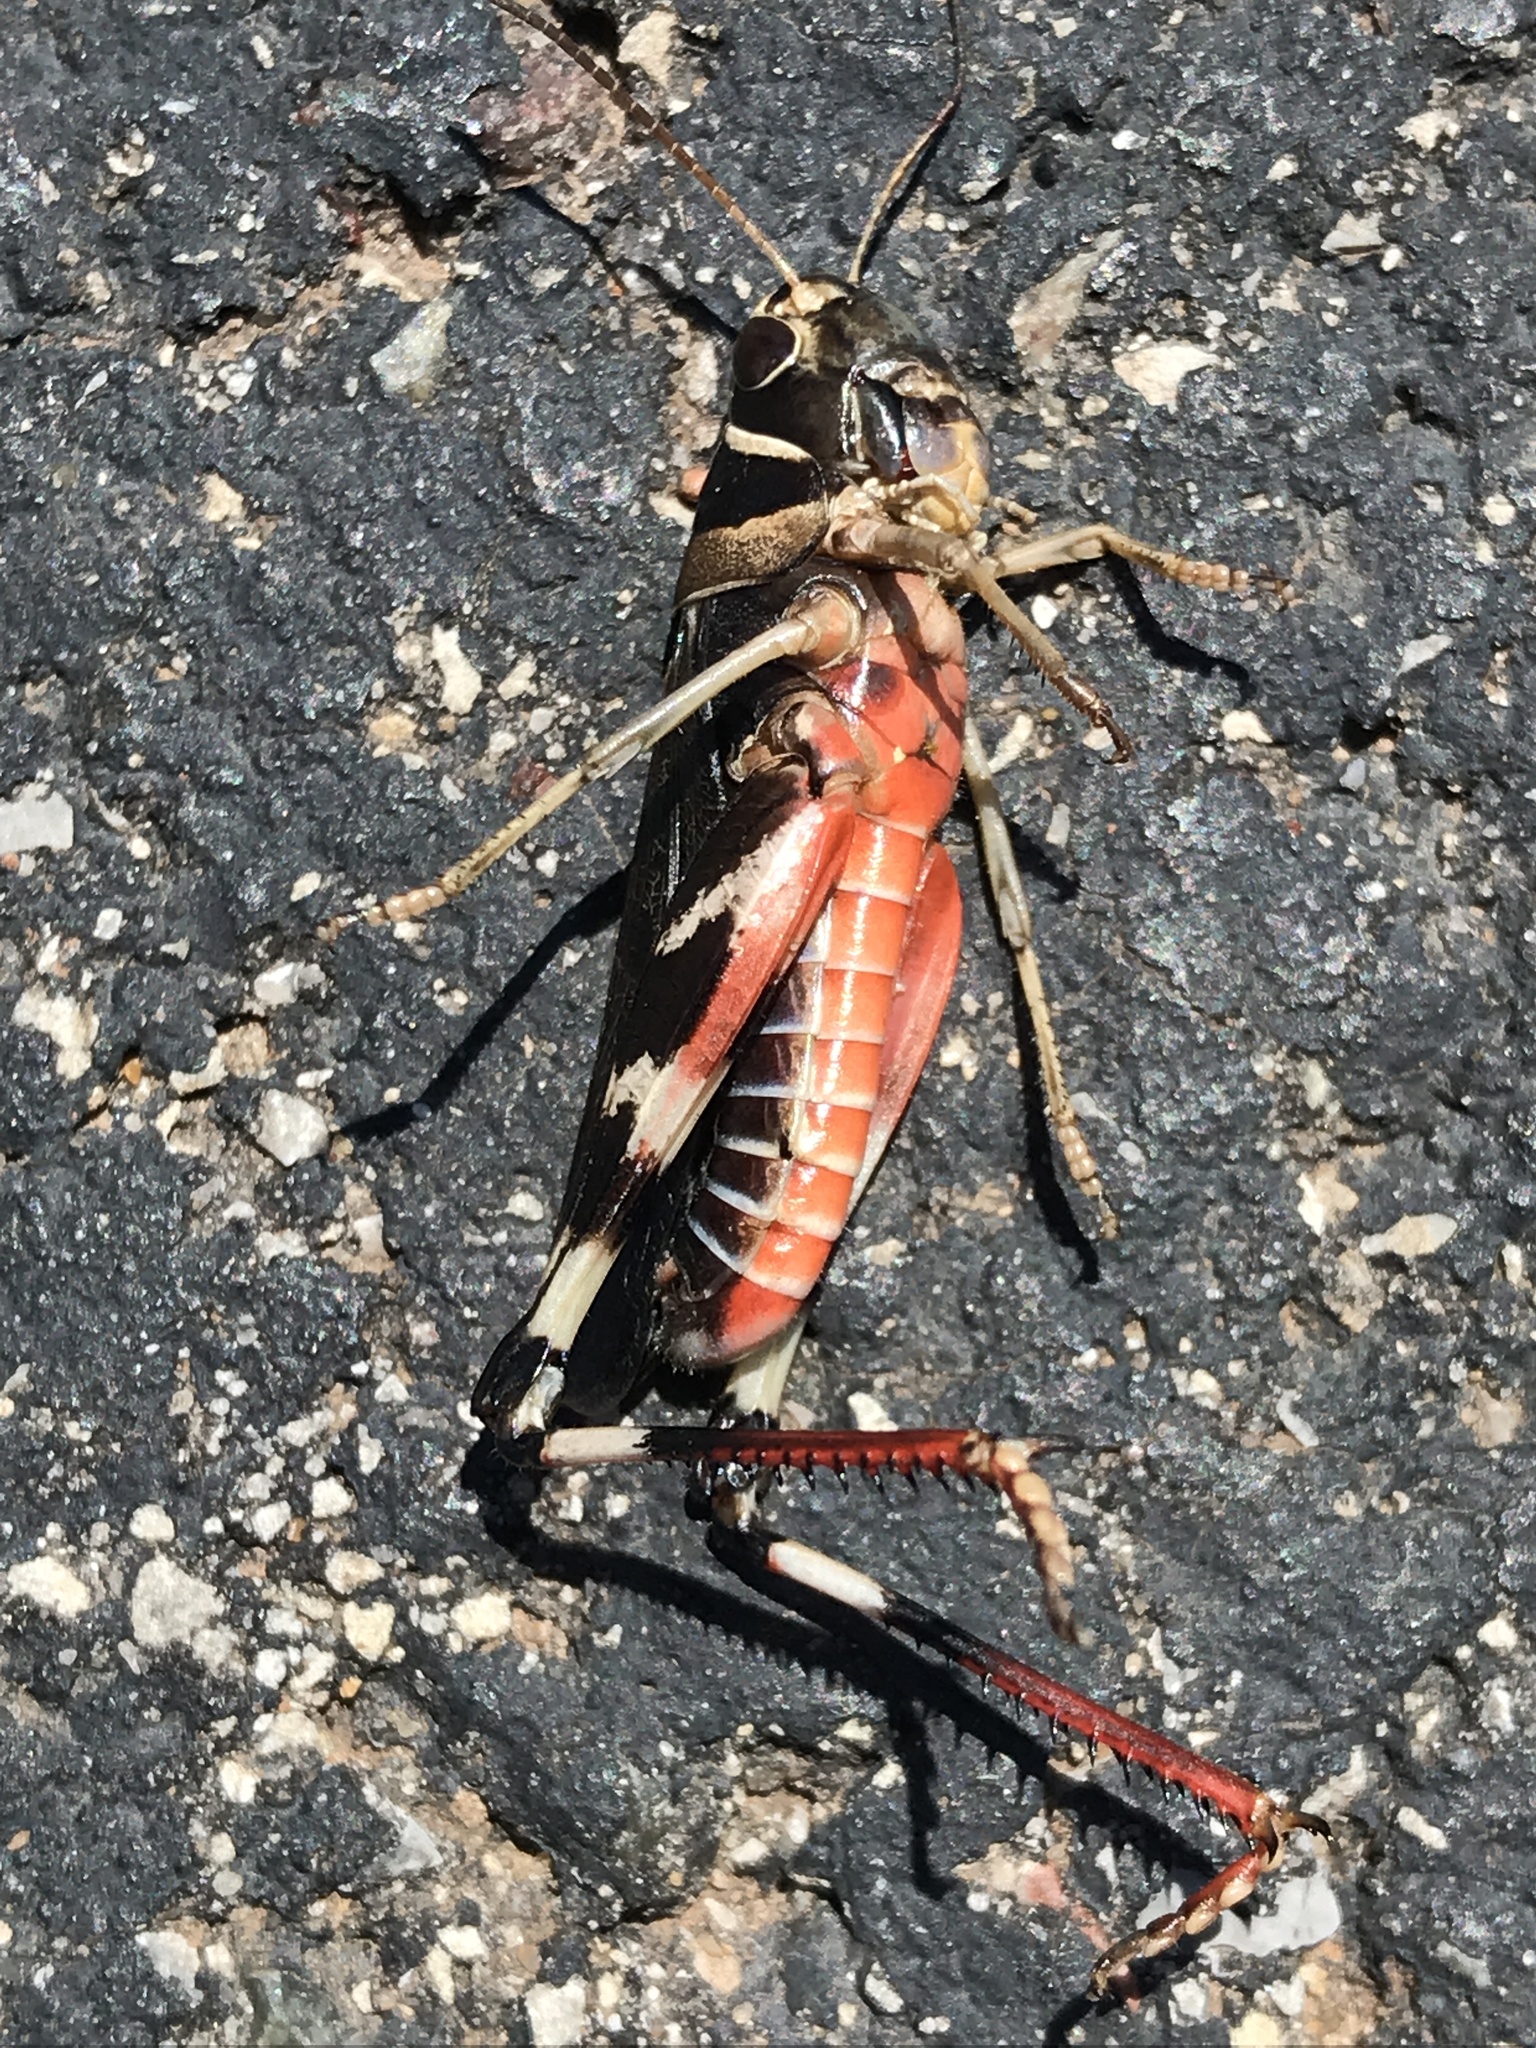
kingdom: Animalia
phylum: Arthropoda
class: Insecta
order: Orthoptera
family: Acrididae
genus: Boopedon
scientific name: Boopedon gracile
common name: Graceful range grasshopper
